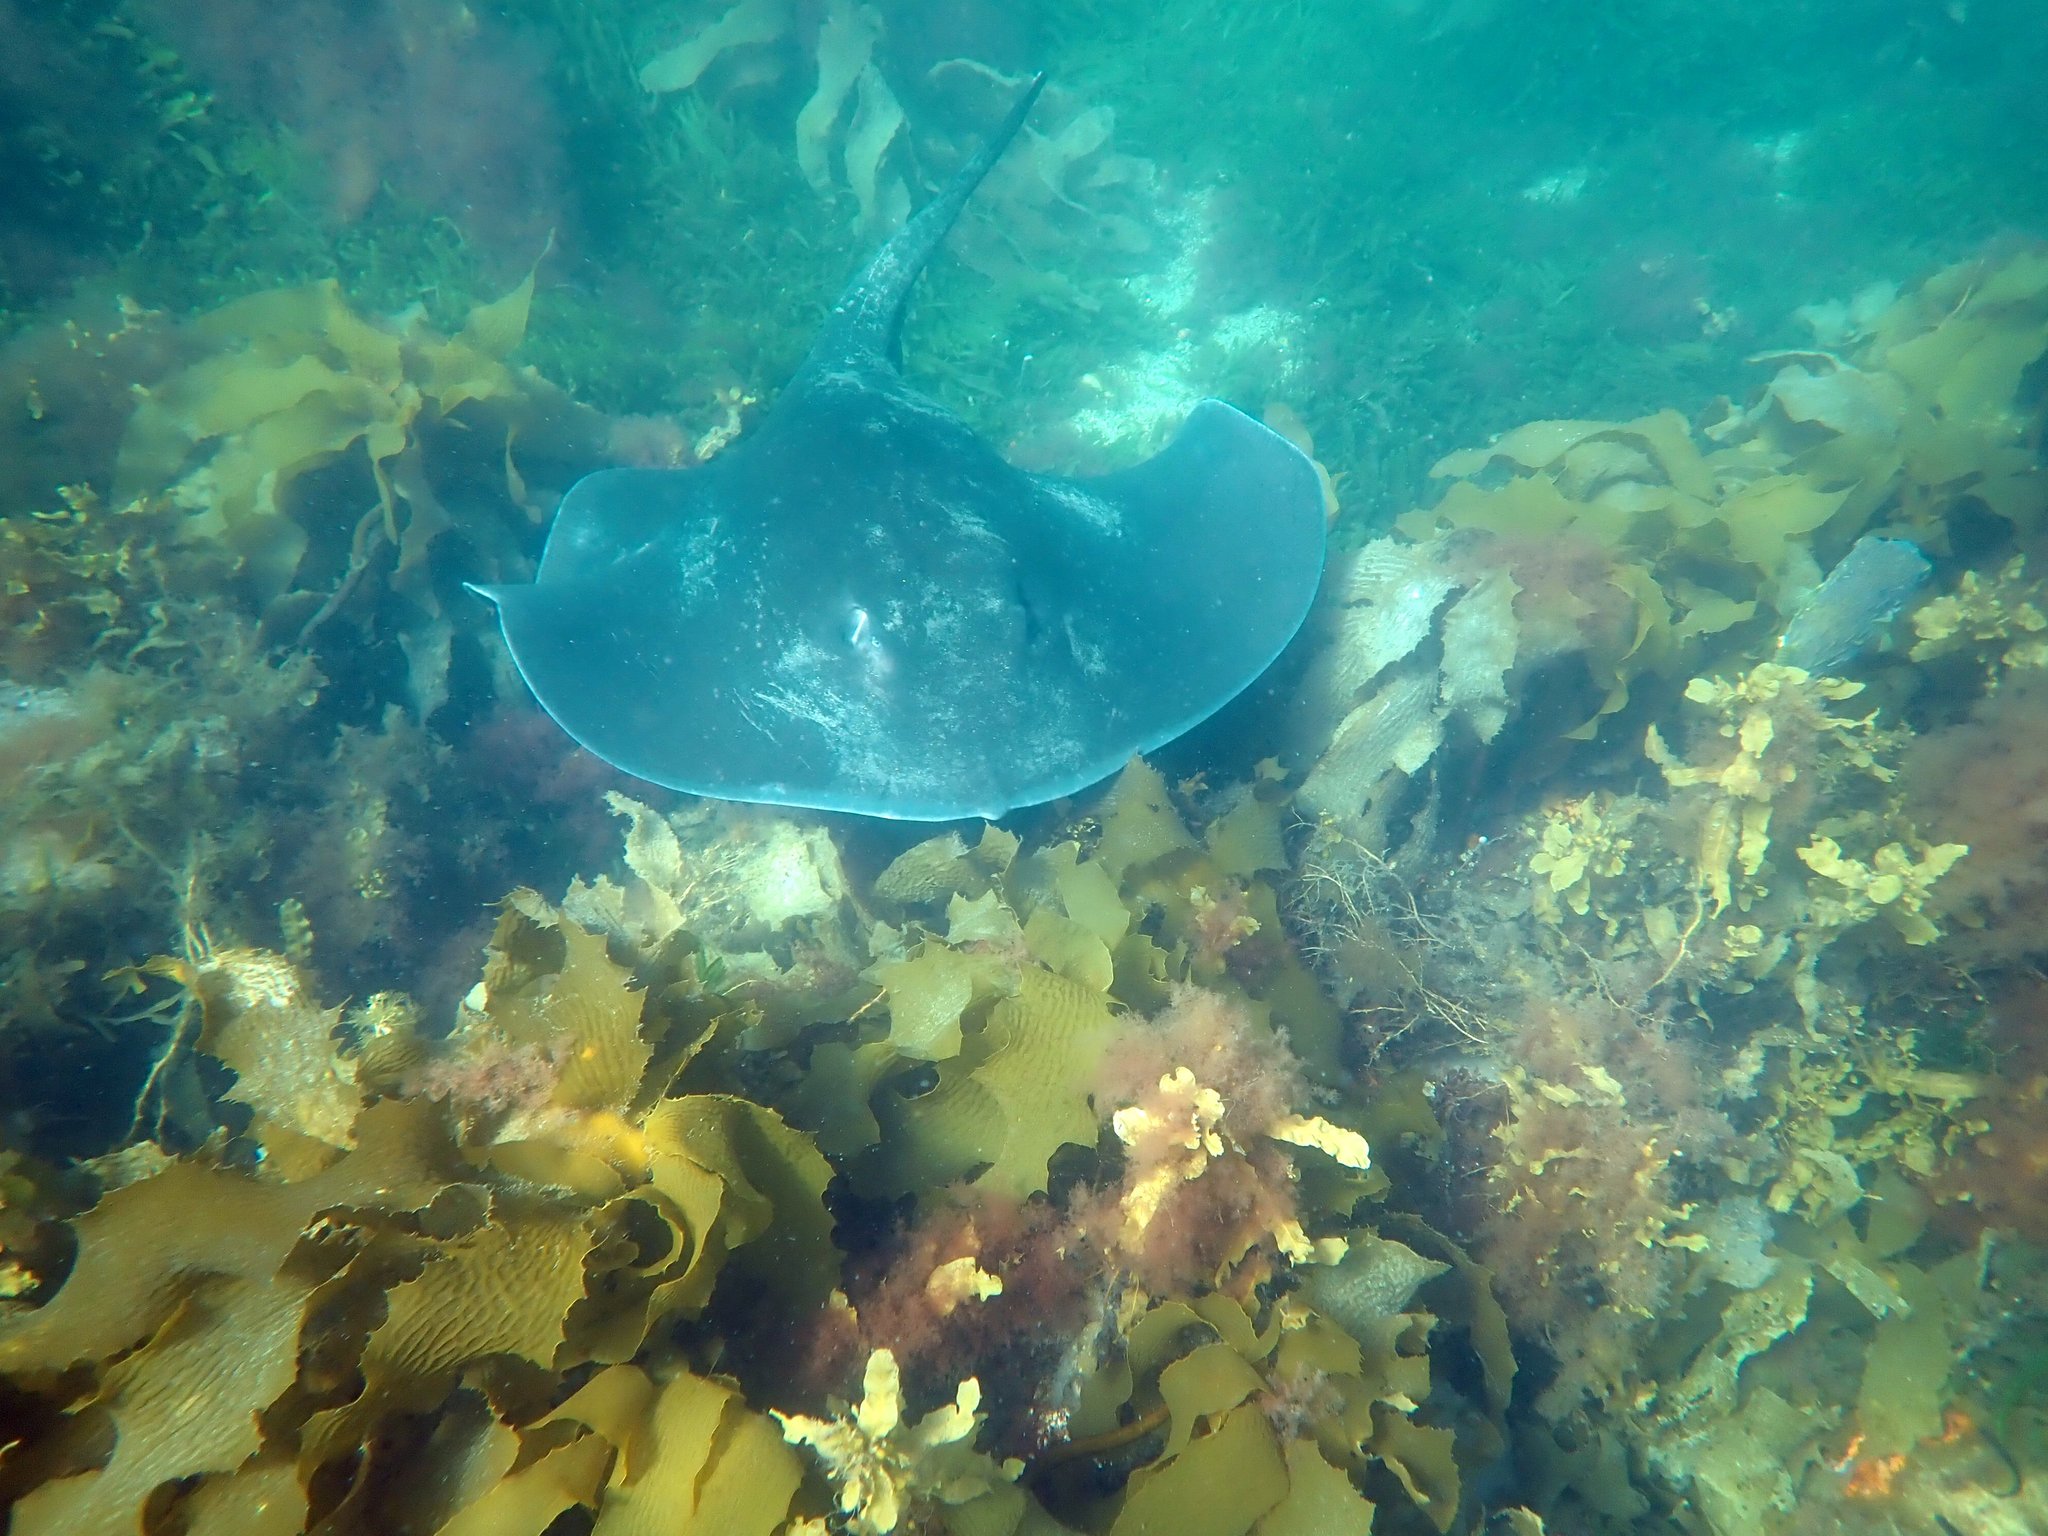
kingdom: Animalia
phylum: Chordata
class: Elasmobranchii
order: Myliobatiformes
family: Dasyatidae
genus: Bathytoshia
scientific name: Bathytoshia brevicaudata
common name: Short-tail stingray
